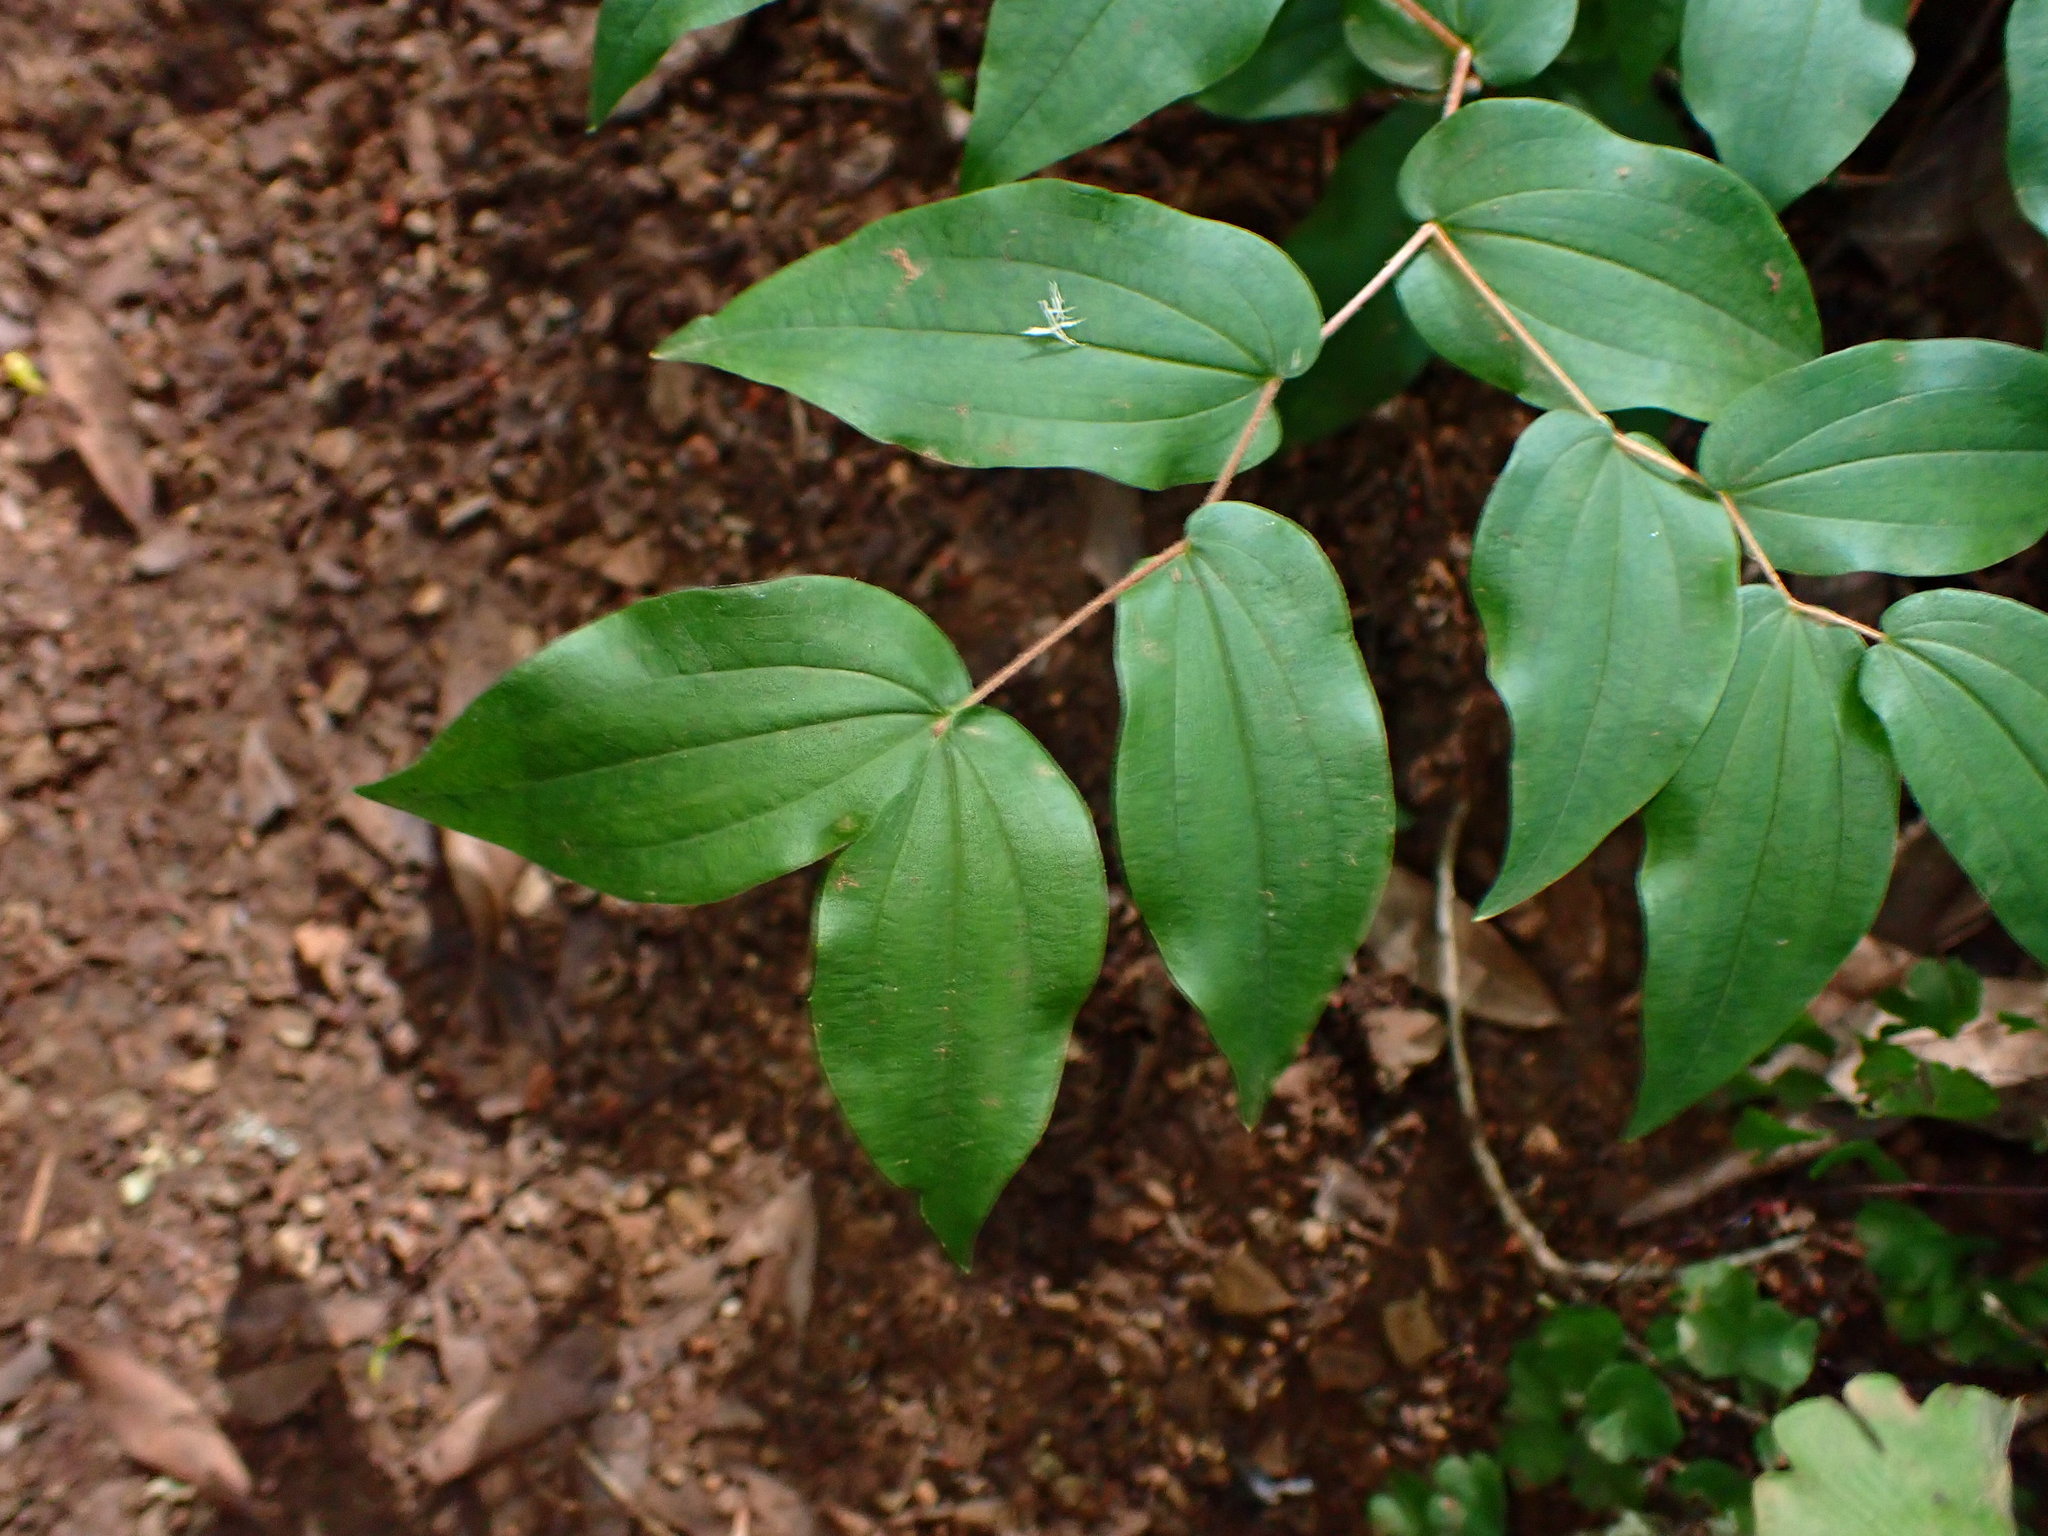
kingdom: Plantae
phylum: Tracheophyta
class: Liliopsida
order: Liliales
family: Liliaceae
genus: Prosartes
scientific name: Prosartes hookeri
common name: Fairy-bells
